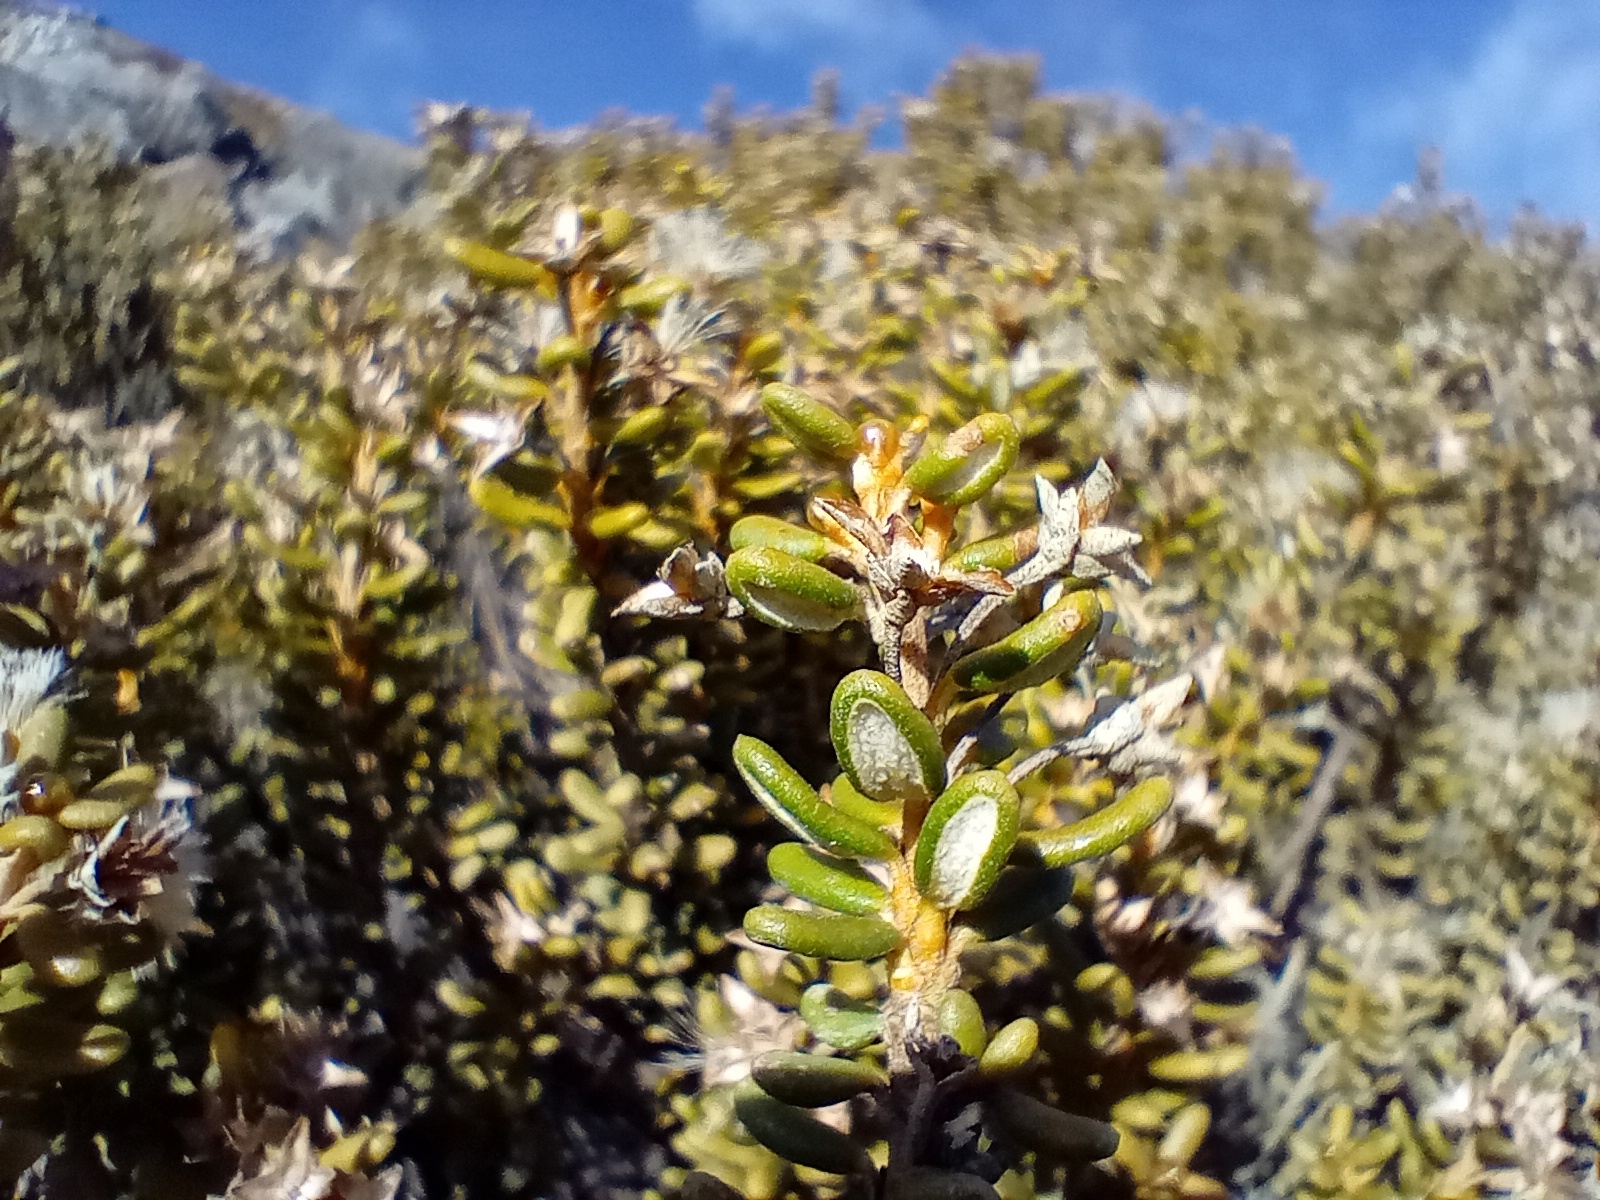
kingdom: Plantae
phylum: Tracheophyta
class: Magnoliopsida
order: Asterales
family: Asteraceae
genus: Olearia
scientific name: Olearia cymbifolia
